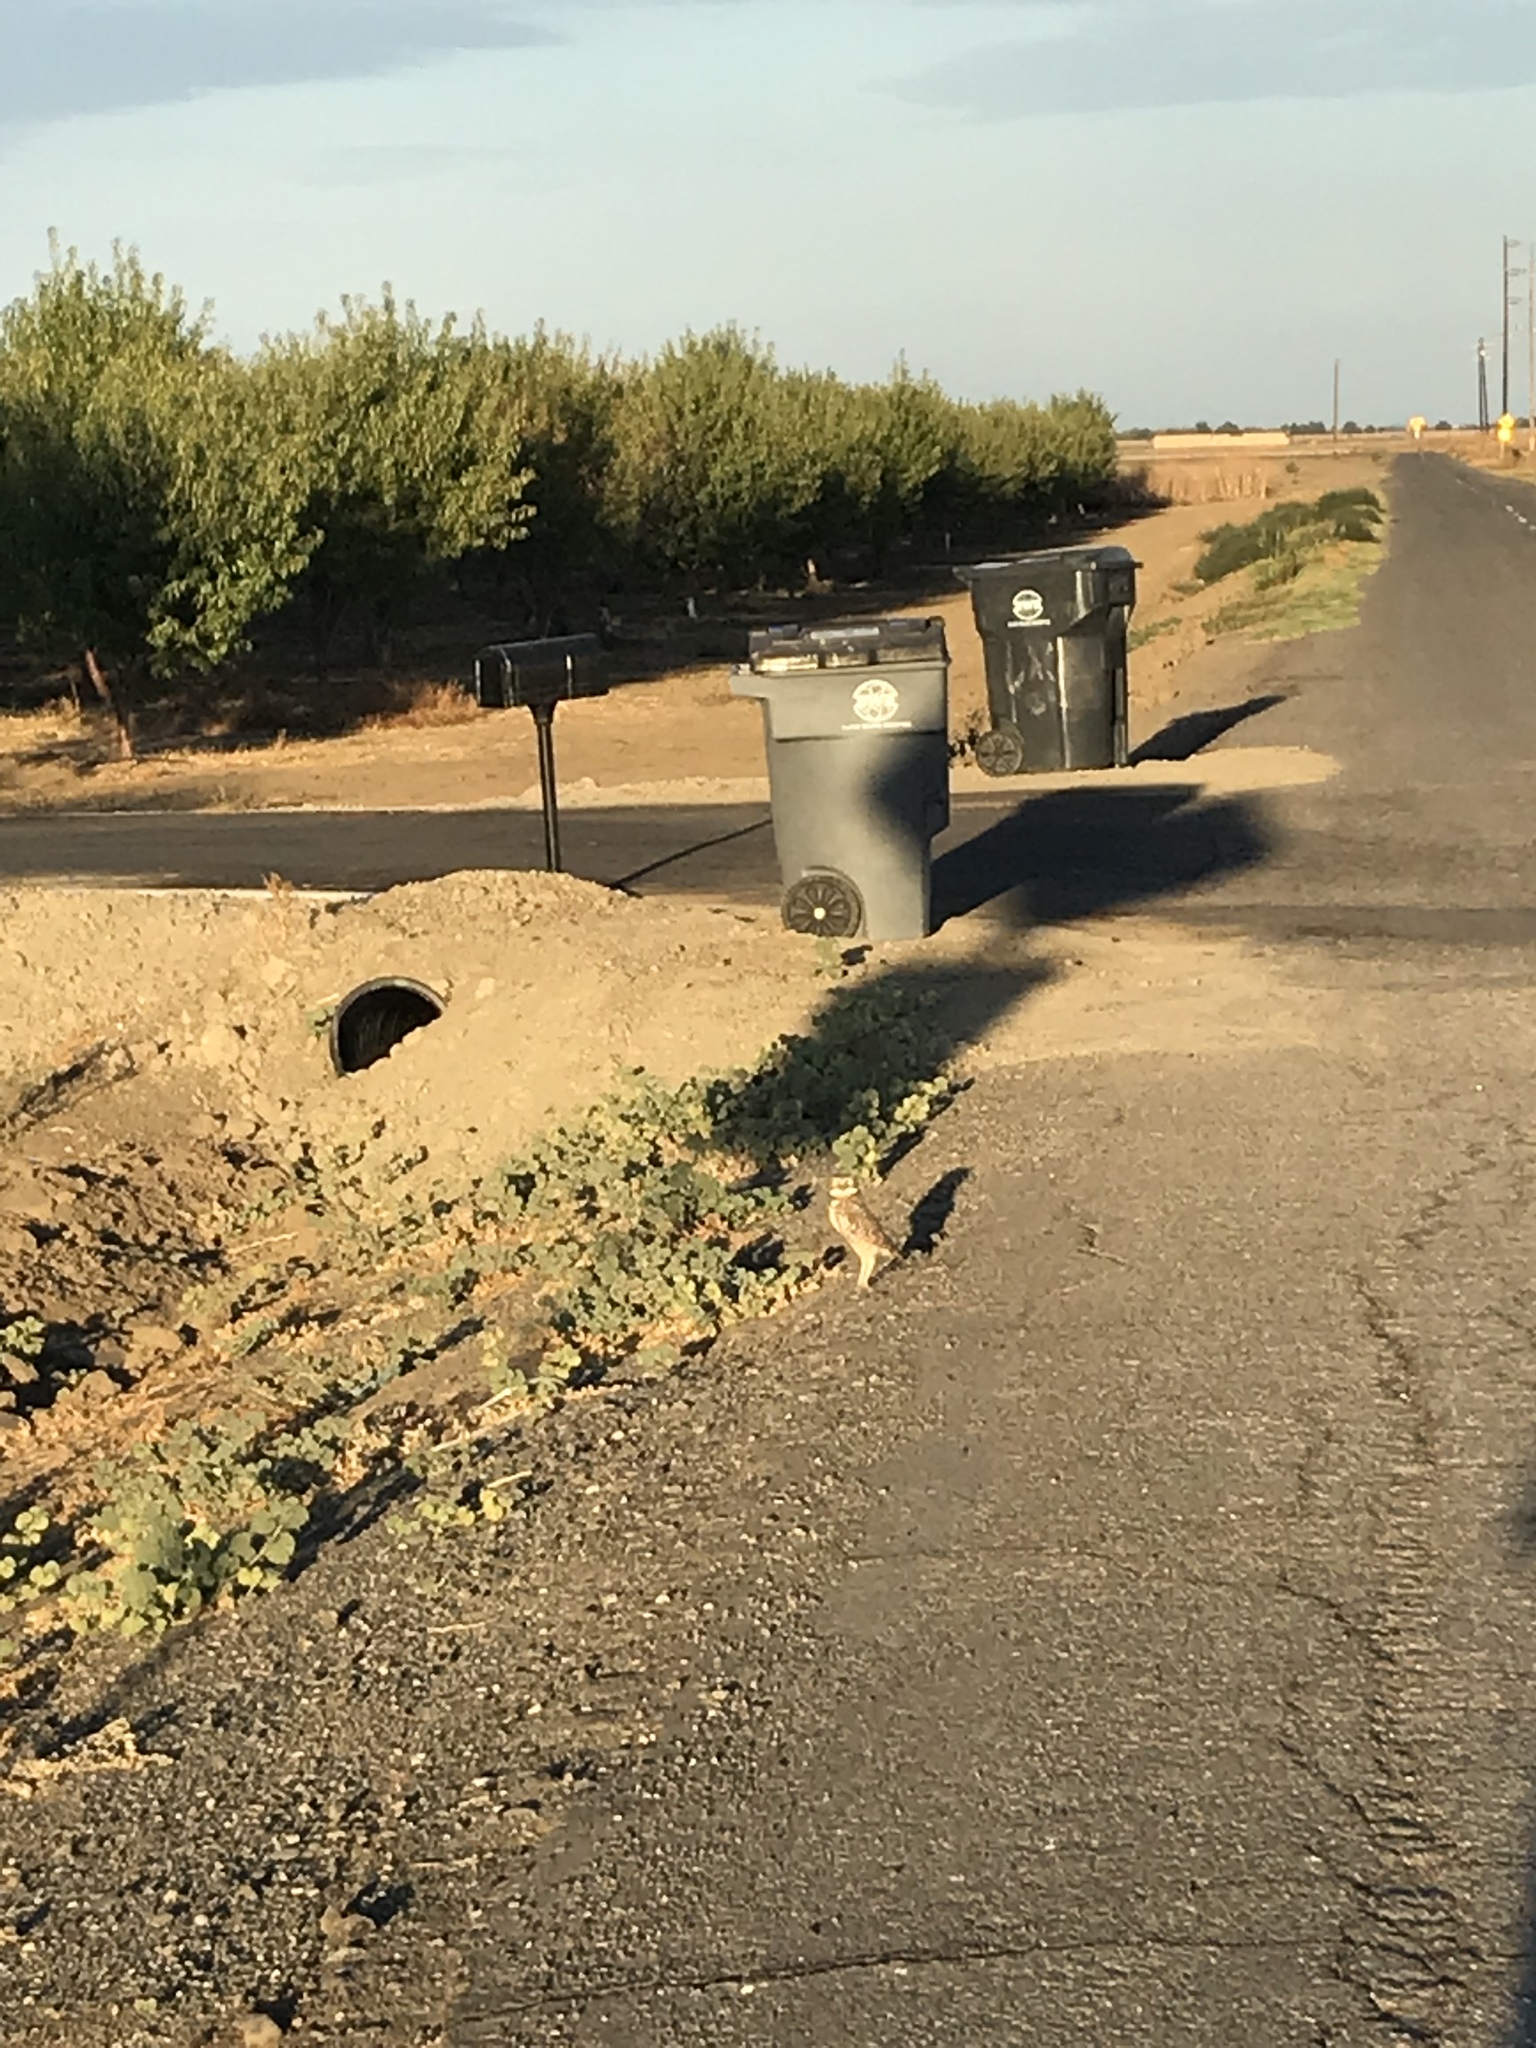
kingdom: Animalia
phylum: Chordata
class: Aves
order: Strigiformes
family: Strigidae
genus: Athene
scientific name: Athene cunicularia
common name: Burrowing owl
